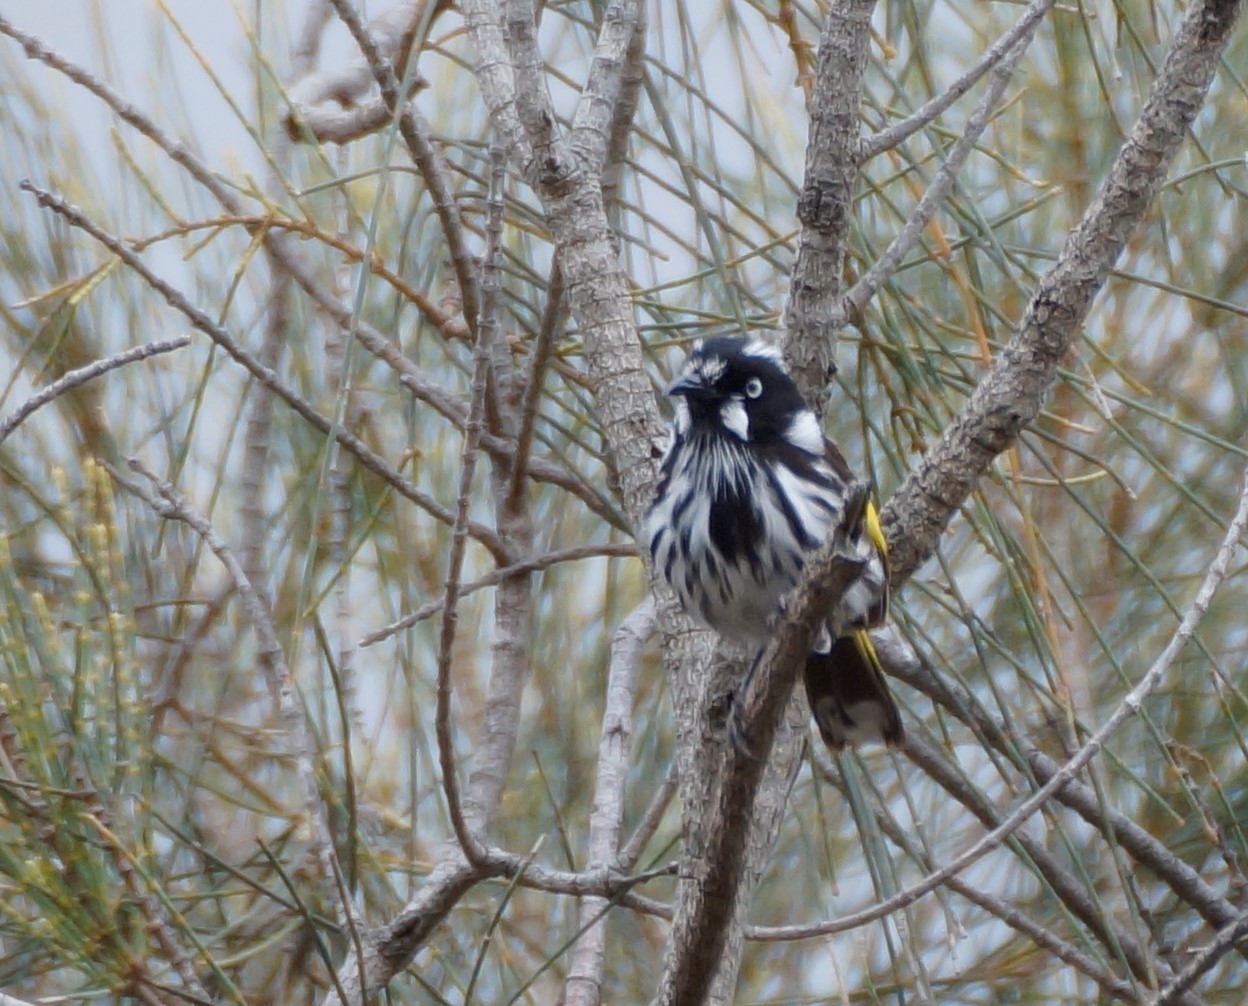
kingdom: Animalia
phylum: Chordata
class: Aves
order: Passeriformes
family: Meliphagidae
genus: Phylidonyris
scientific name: Phylidonyris novaehollandiae
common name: New holland honeyeater
